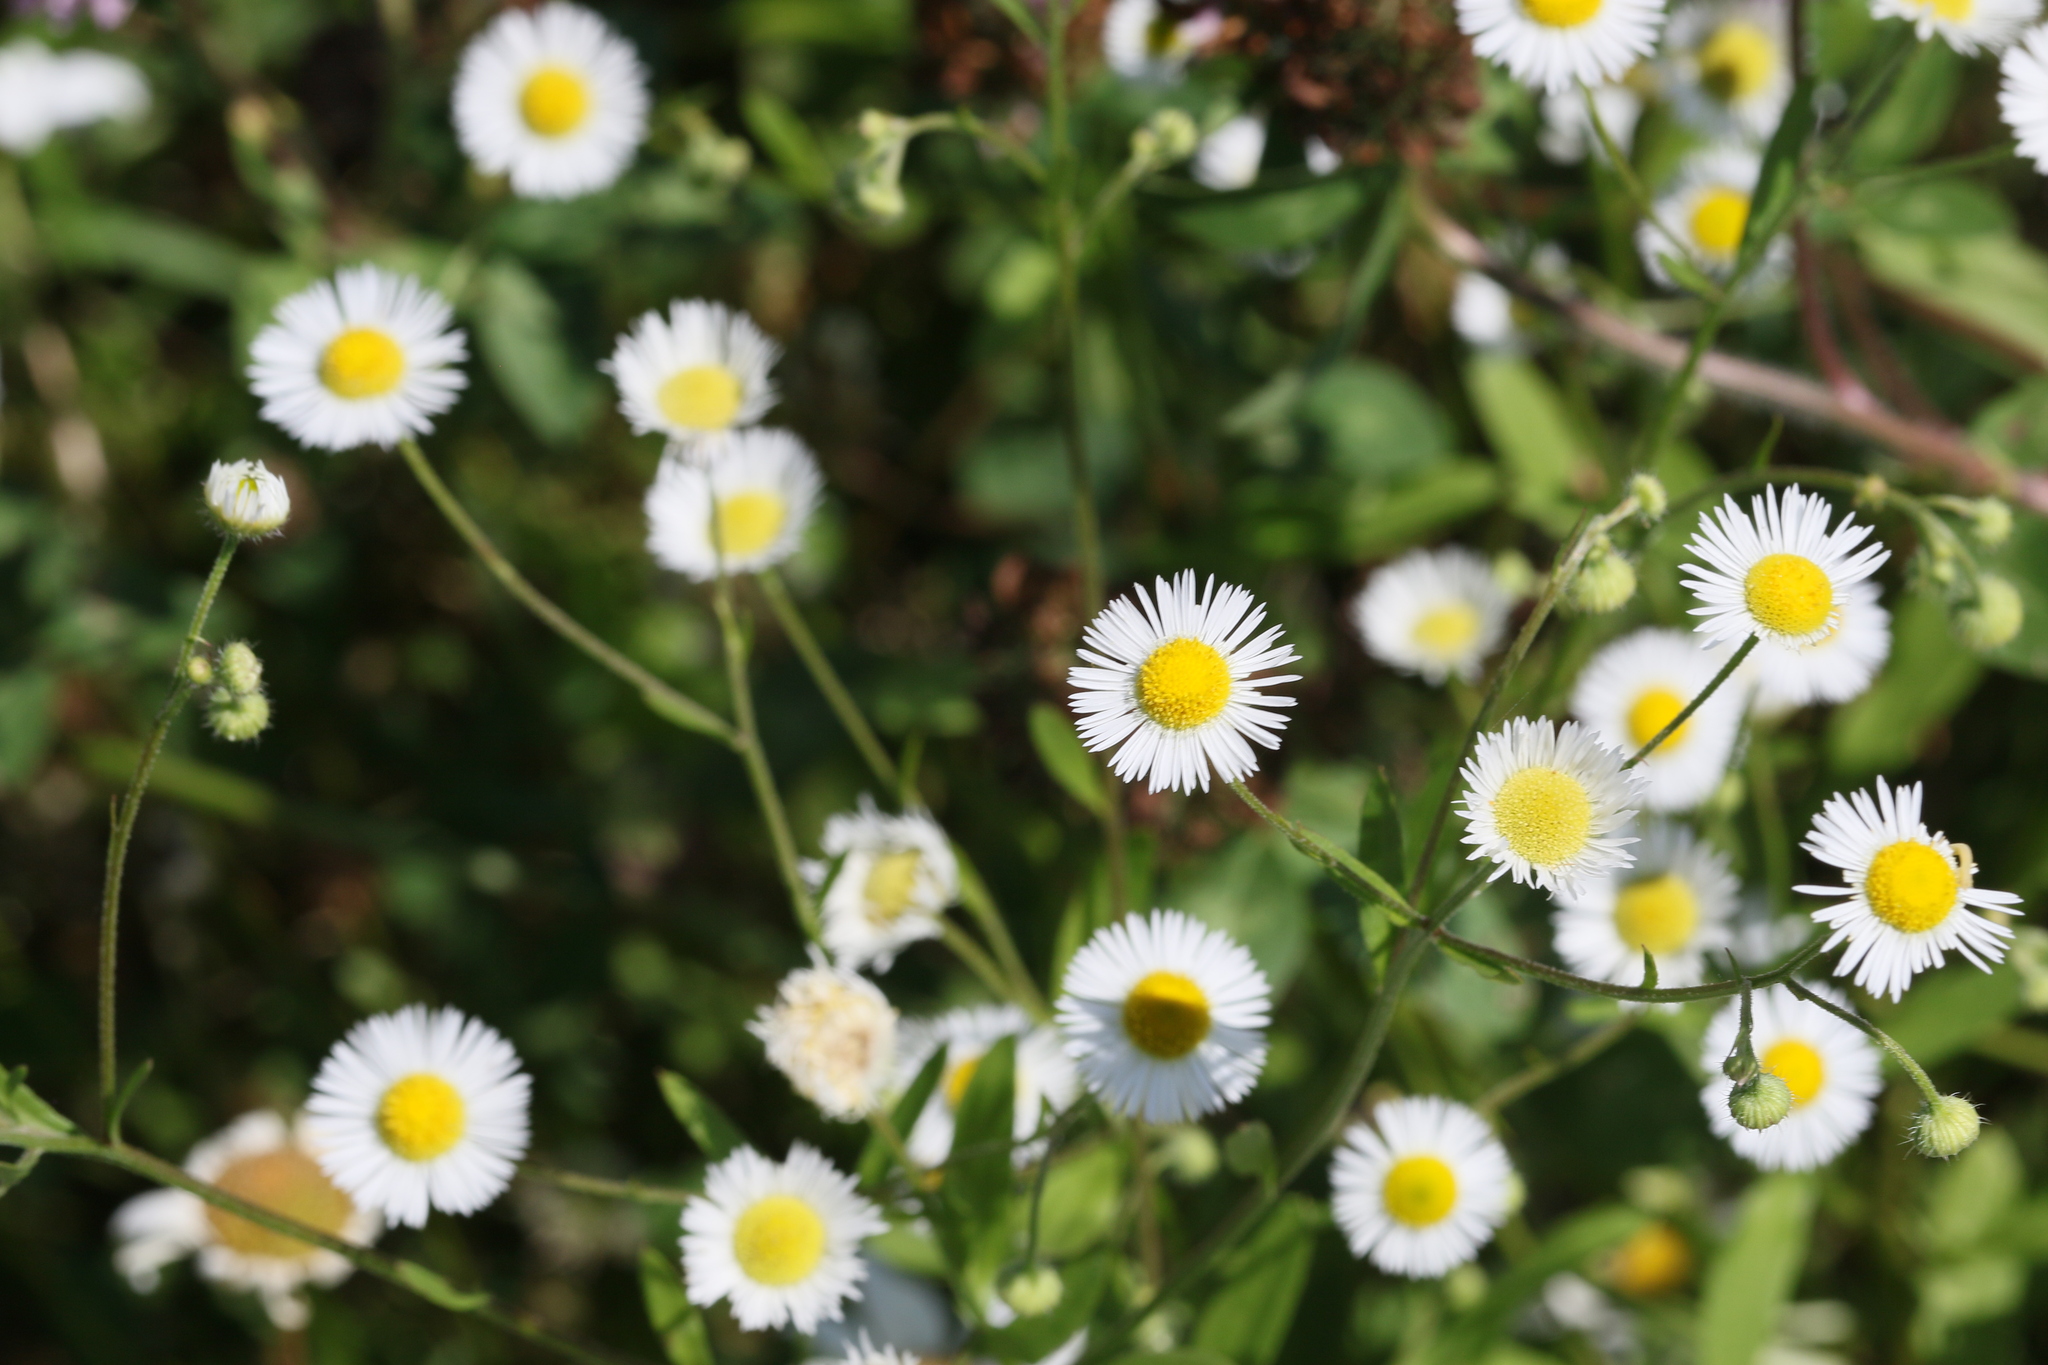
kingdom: Plantae
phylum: Tracheophyta
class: Magnoliopsida
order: Asterales
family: Asteraceae
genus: Erigeron
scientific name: Erigeron strigosus
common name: Common eastern fleabane
